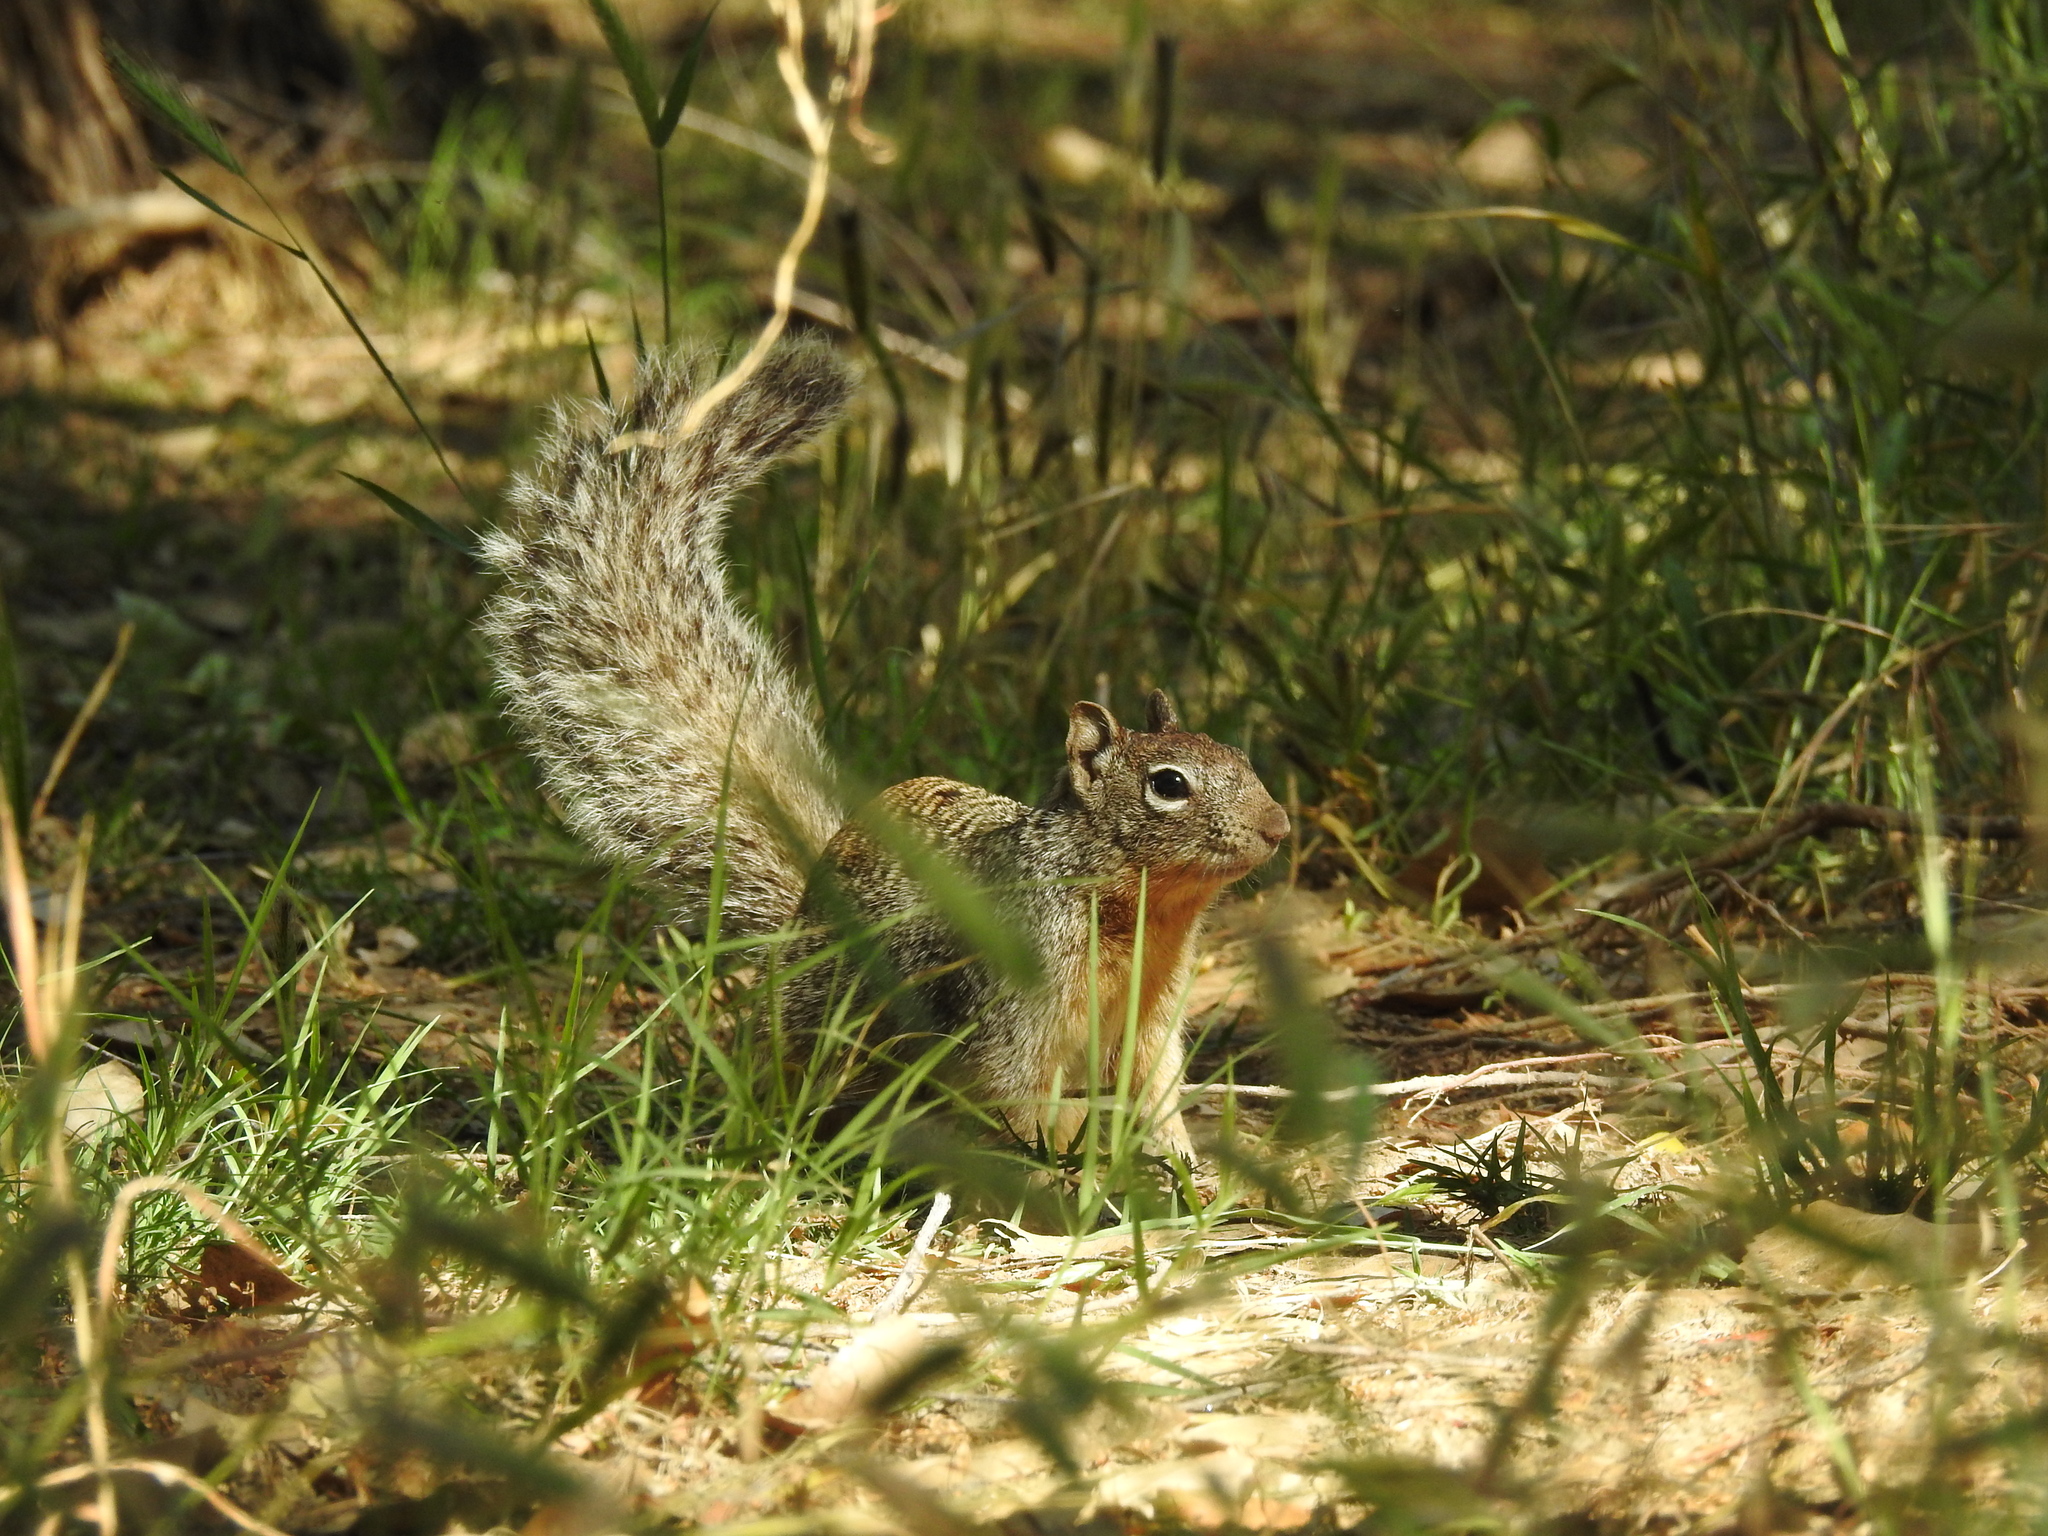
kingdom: Animalia
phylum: Chordata
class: Mammalia
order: Rodentia
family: Sciuridae
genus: Otospermophilus
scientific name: Otospermophilus variegatus
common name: Rock squirrel
